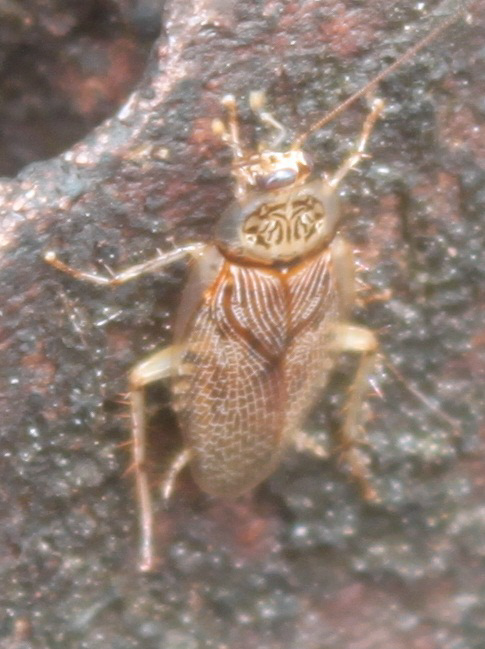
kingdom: Animalia
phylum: Arthropoda
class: Insecta
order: Blattodea
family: Ectobiidae
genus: Balta
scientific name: Balta notulata
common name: Cockroach
